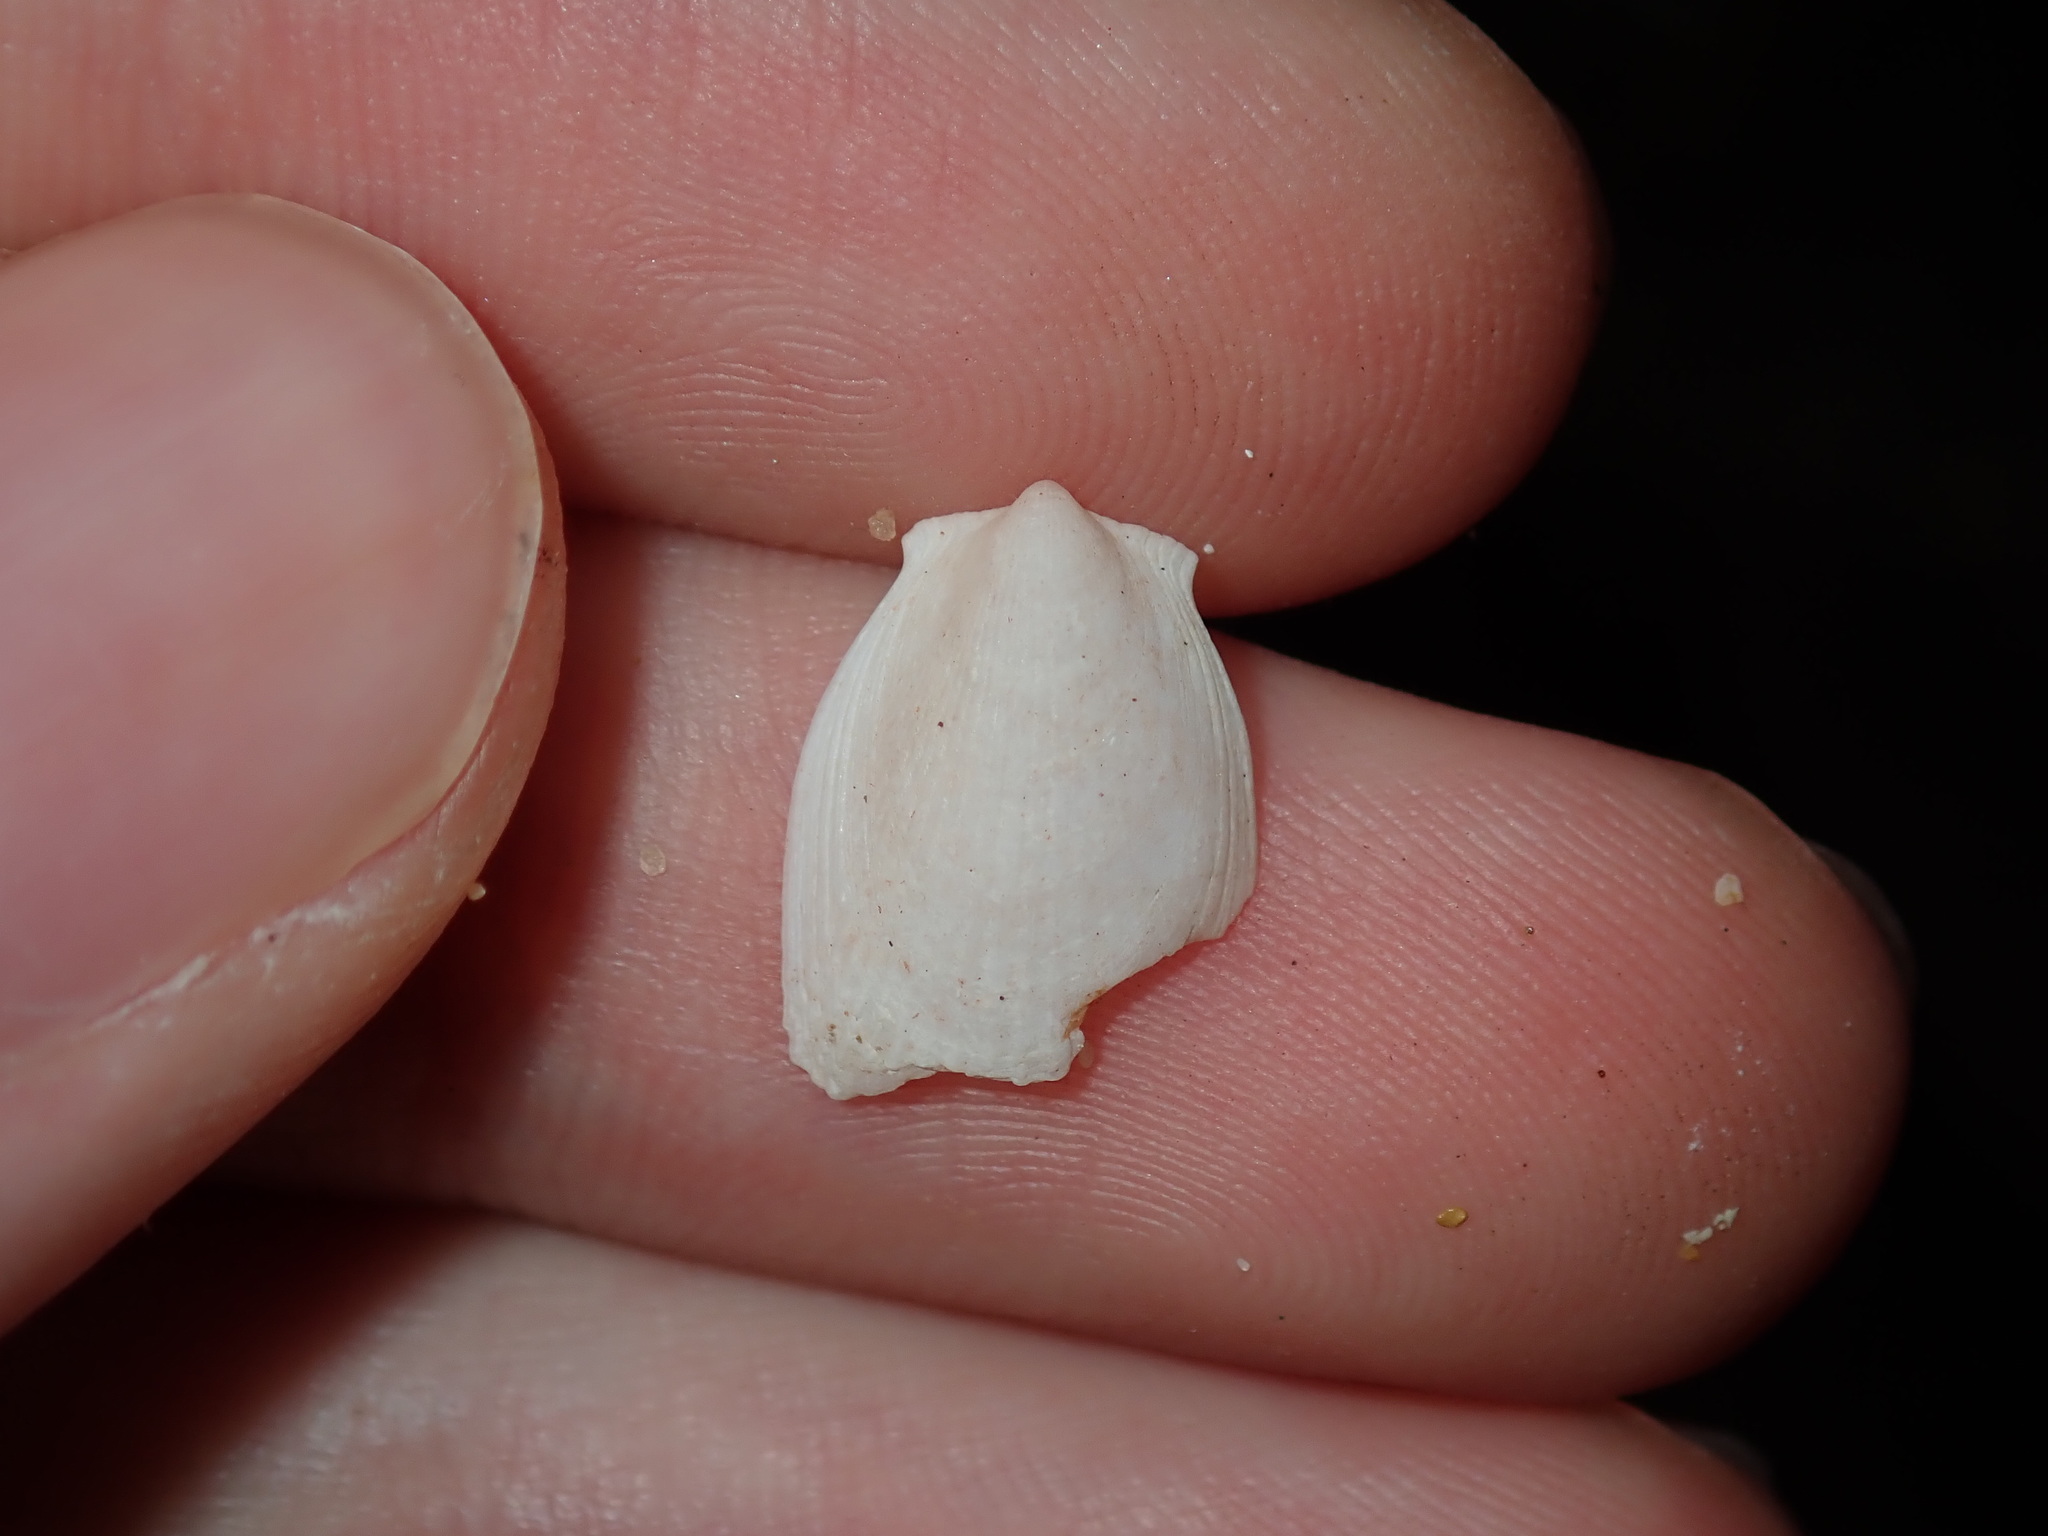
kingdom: Animalia
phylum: Mollusca
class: Bivalvia
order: Limida
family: Limidae
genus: Limatula
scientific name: Limatula strangei
